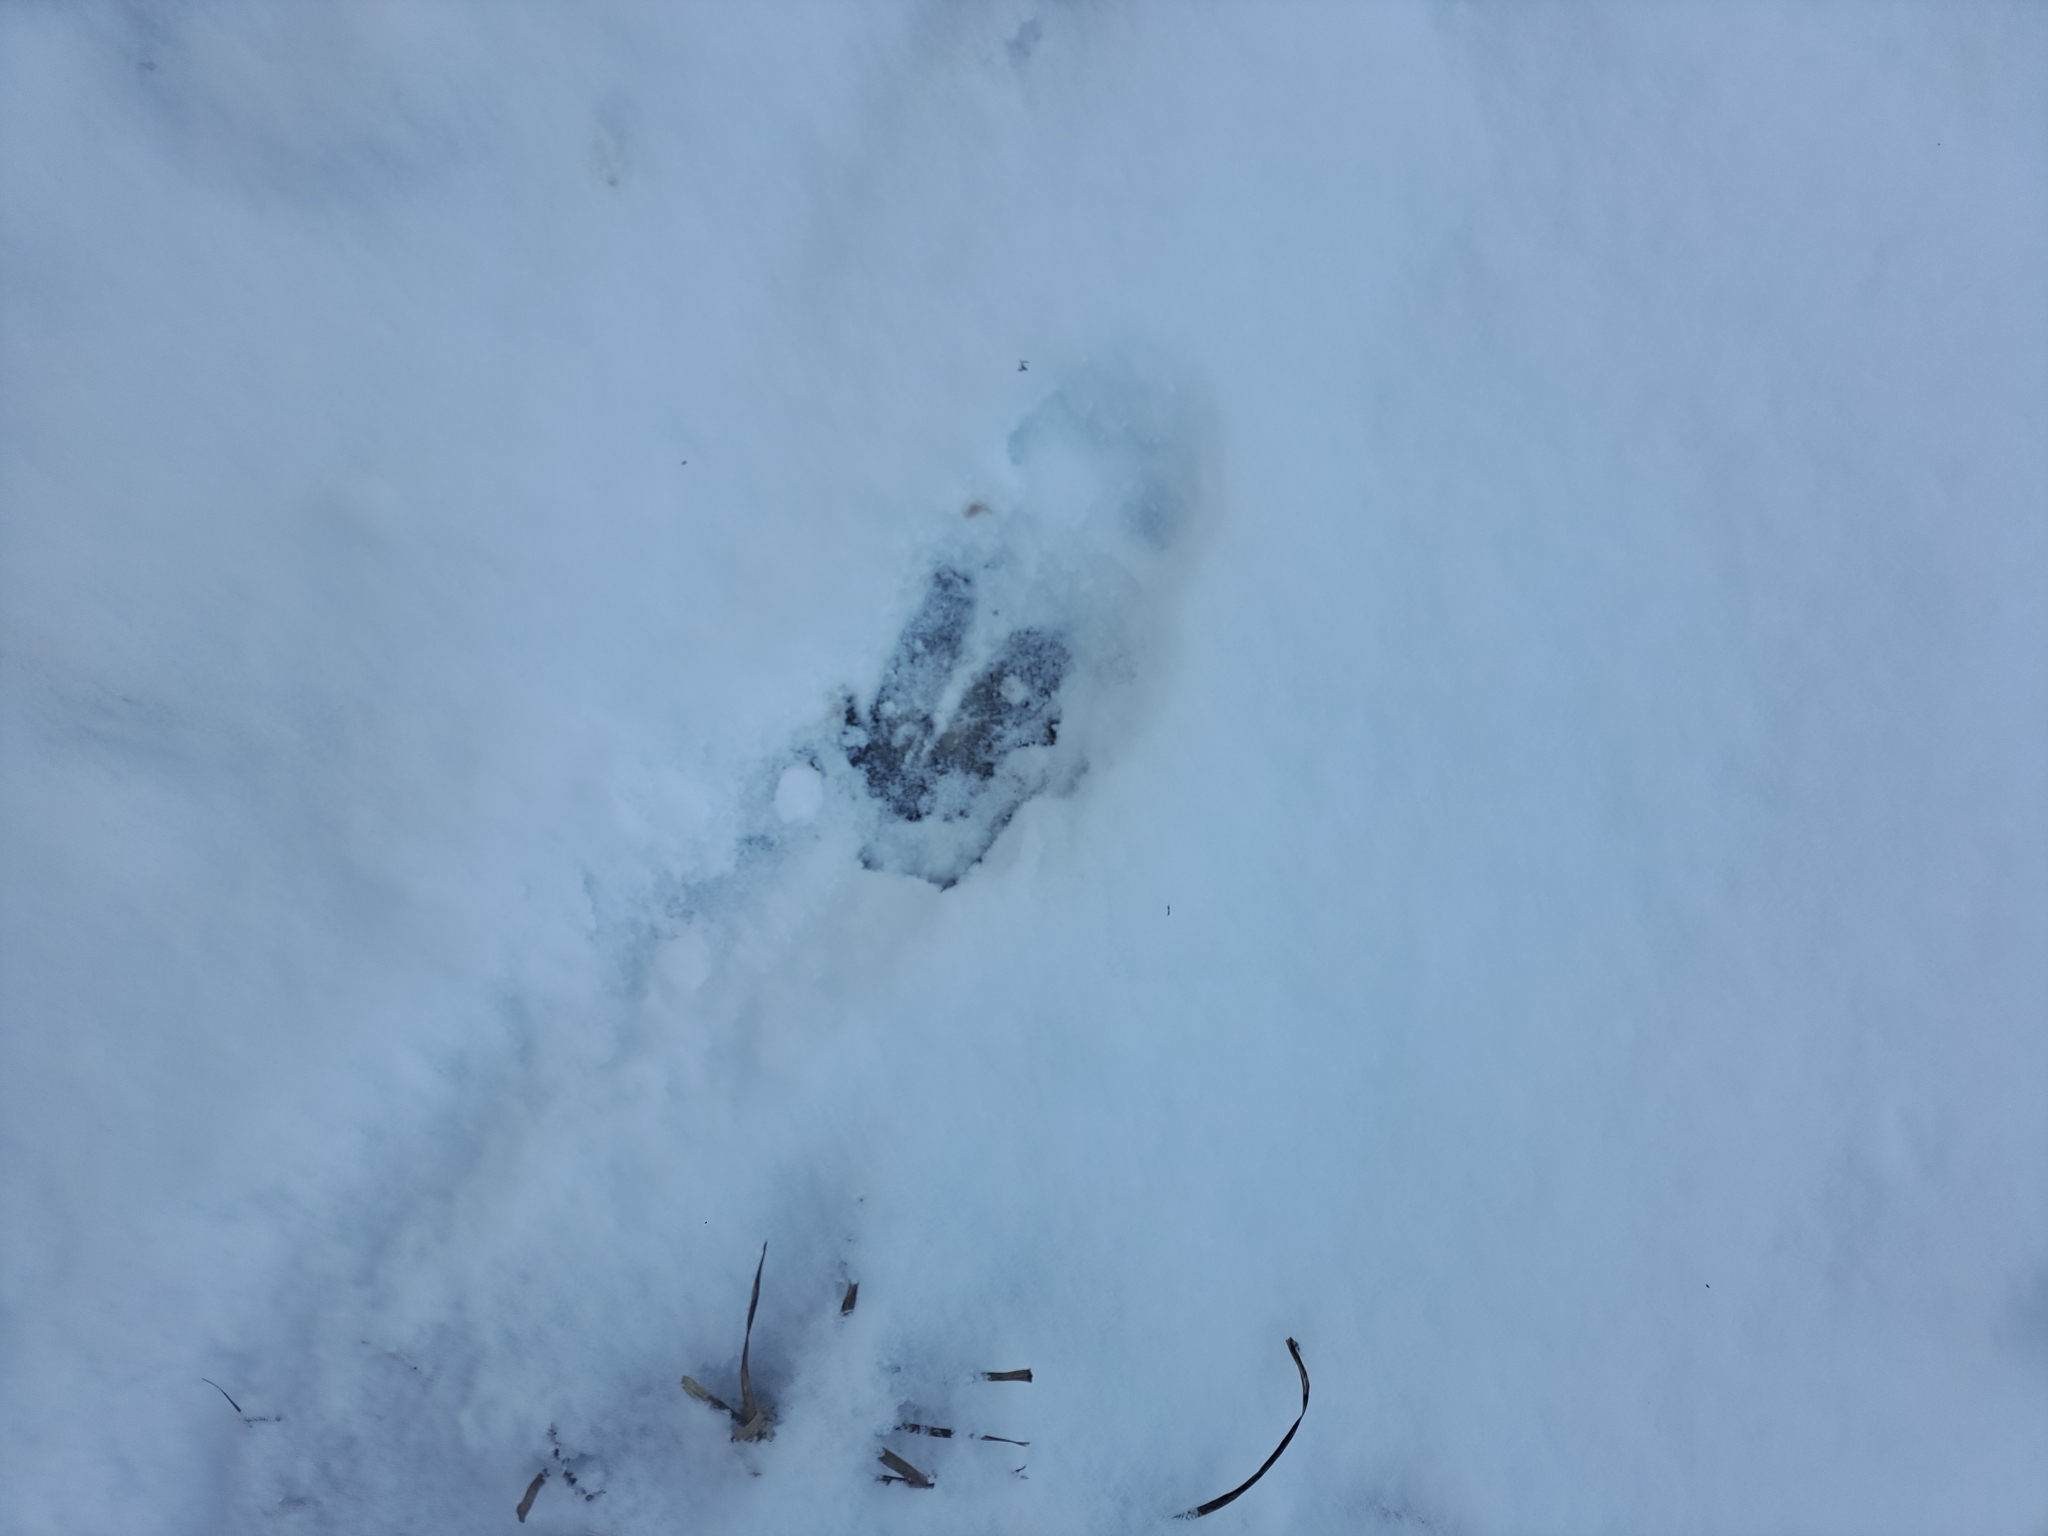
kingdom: Animalia
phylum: Chordata
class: Mammalia
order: Artiodactyla
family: Cervidae
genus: Odocoileus
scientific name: Odocoileus virginianus
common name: White-tailed deer
